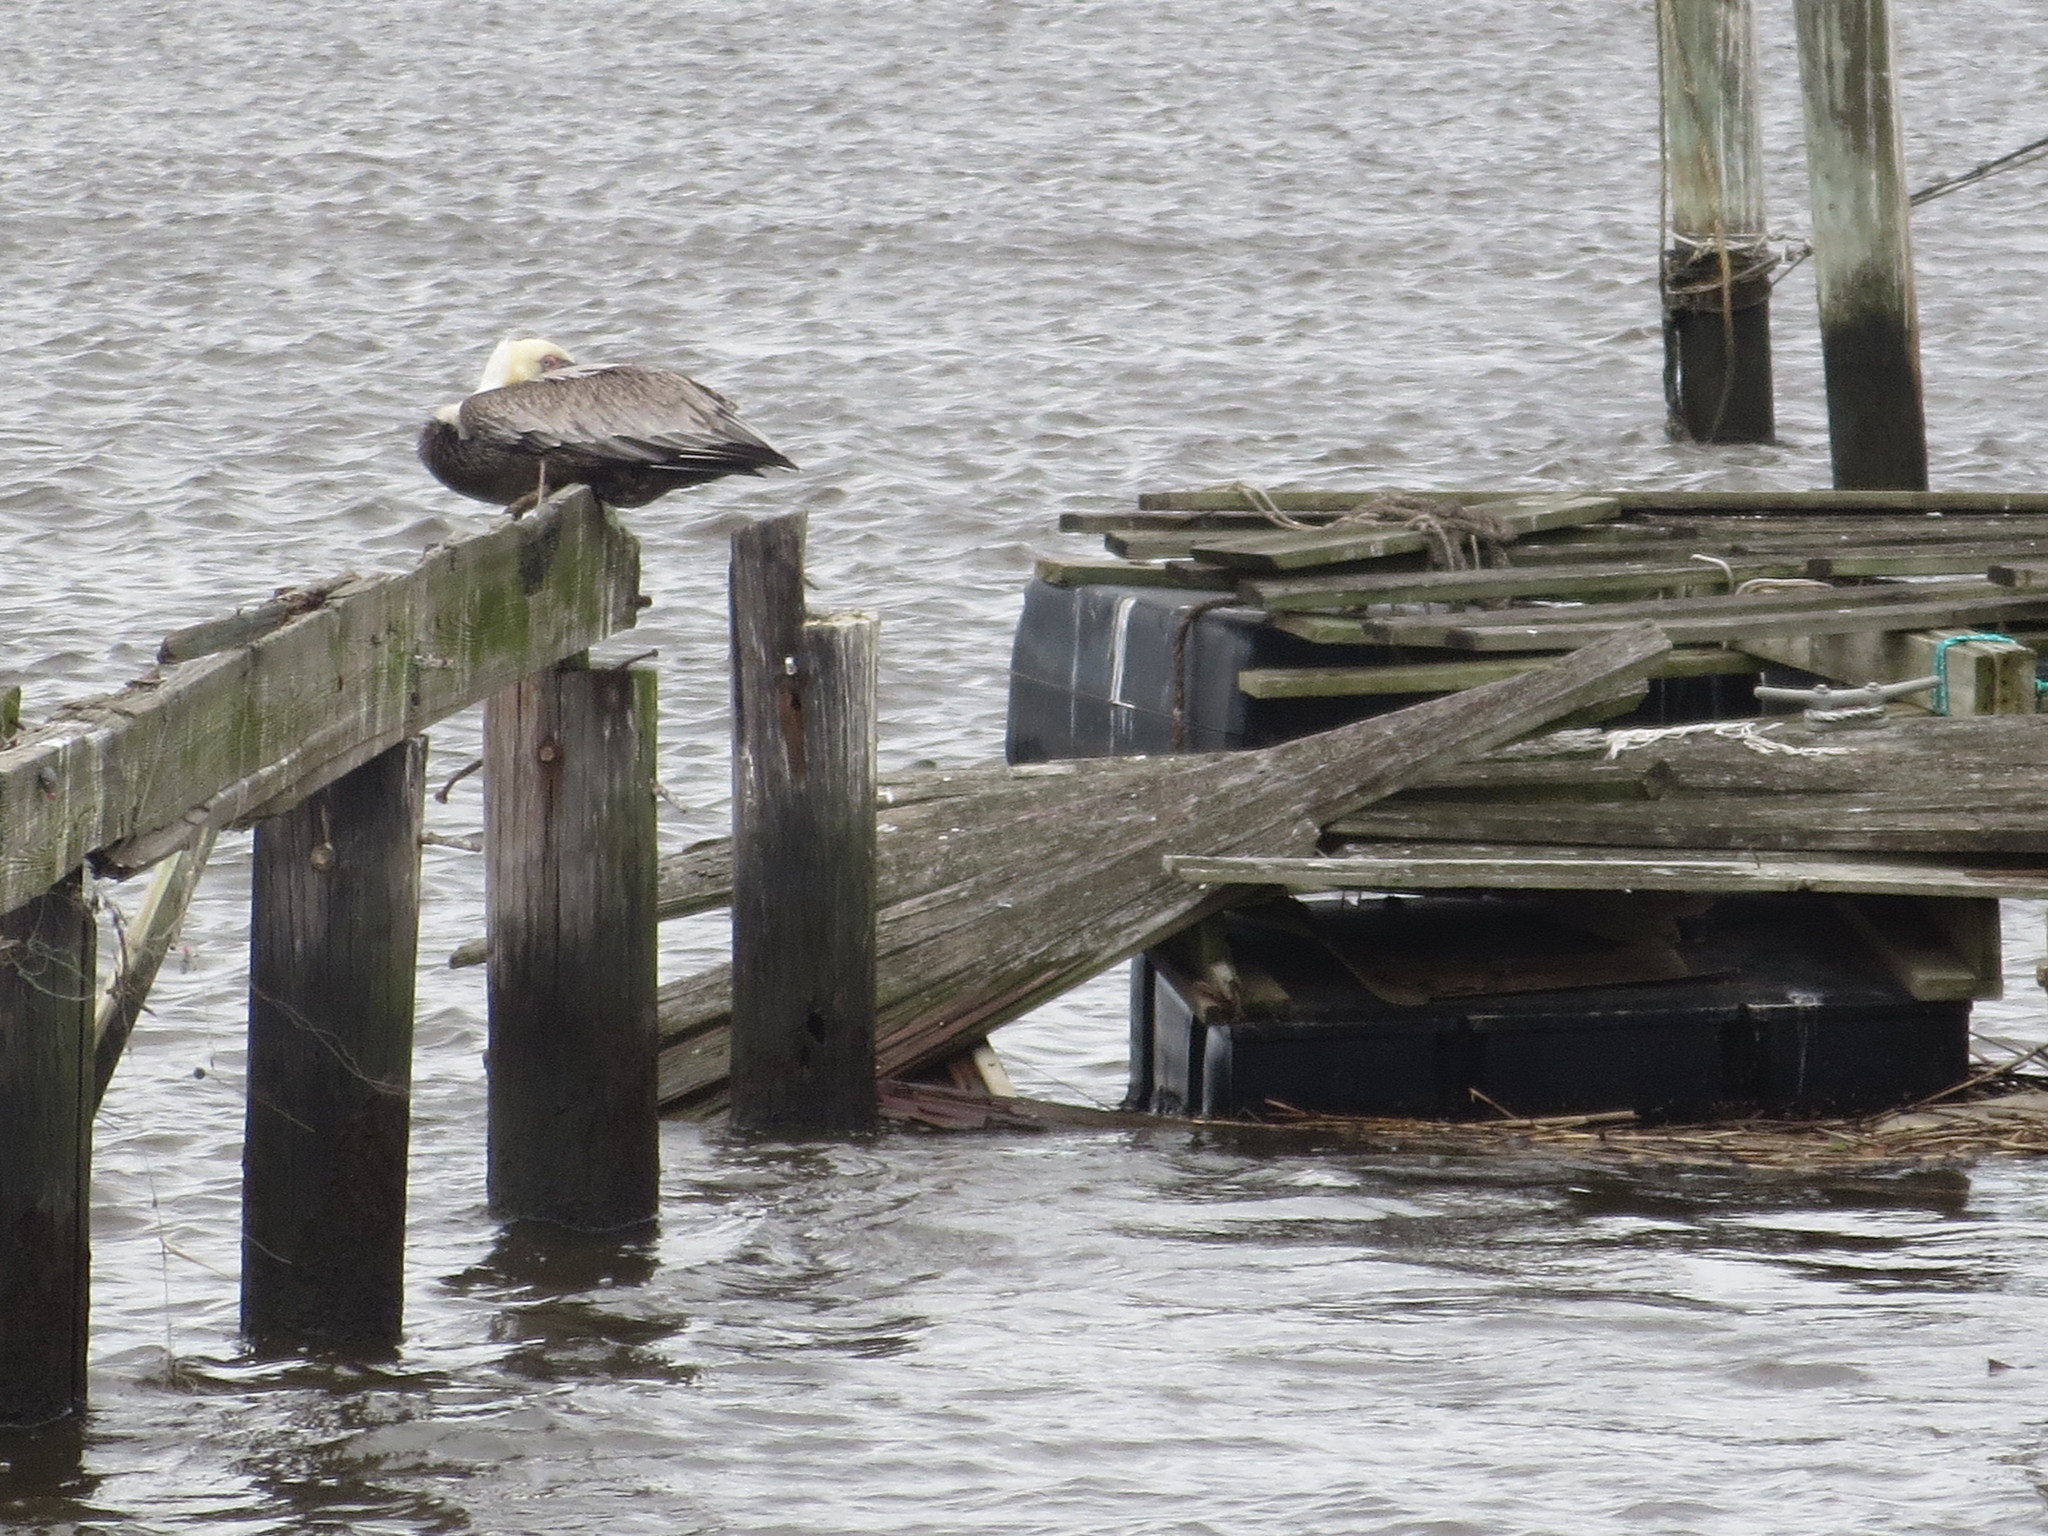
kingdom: Animalia
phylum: Chordata
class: Aves
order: Pelecaniformes
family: Pelecanidae
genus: Pelecanus
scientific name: Pelecanus occidentalis
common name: Brown pelican
